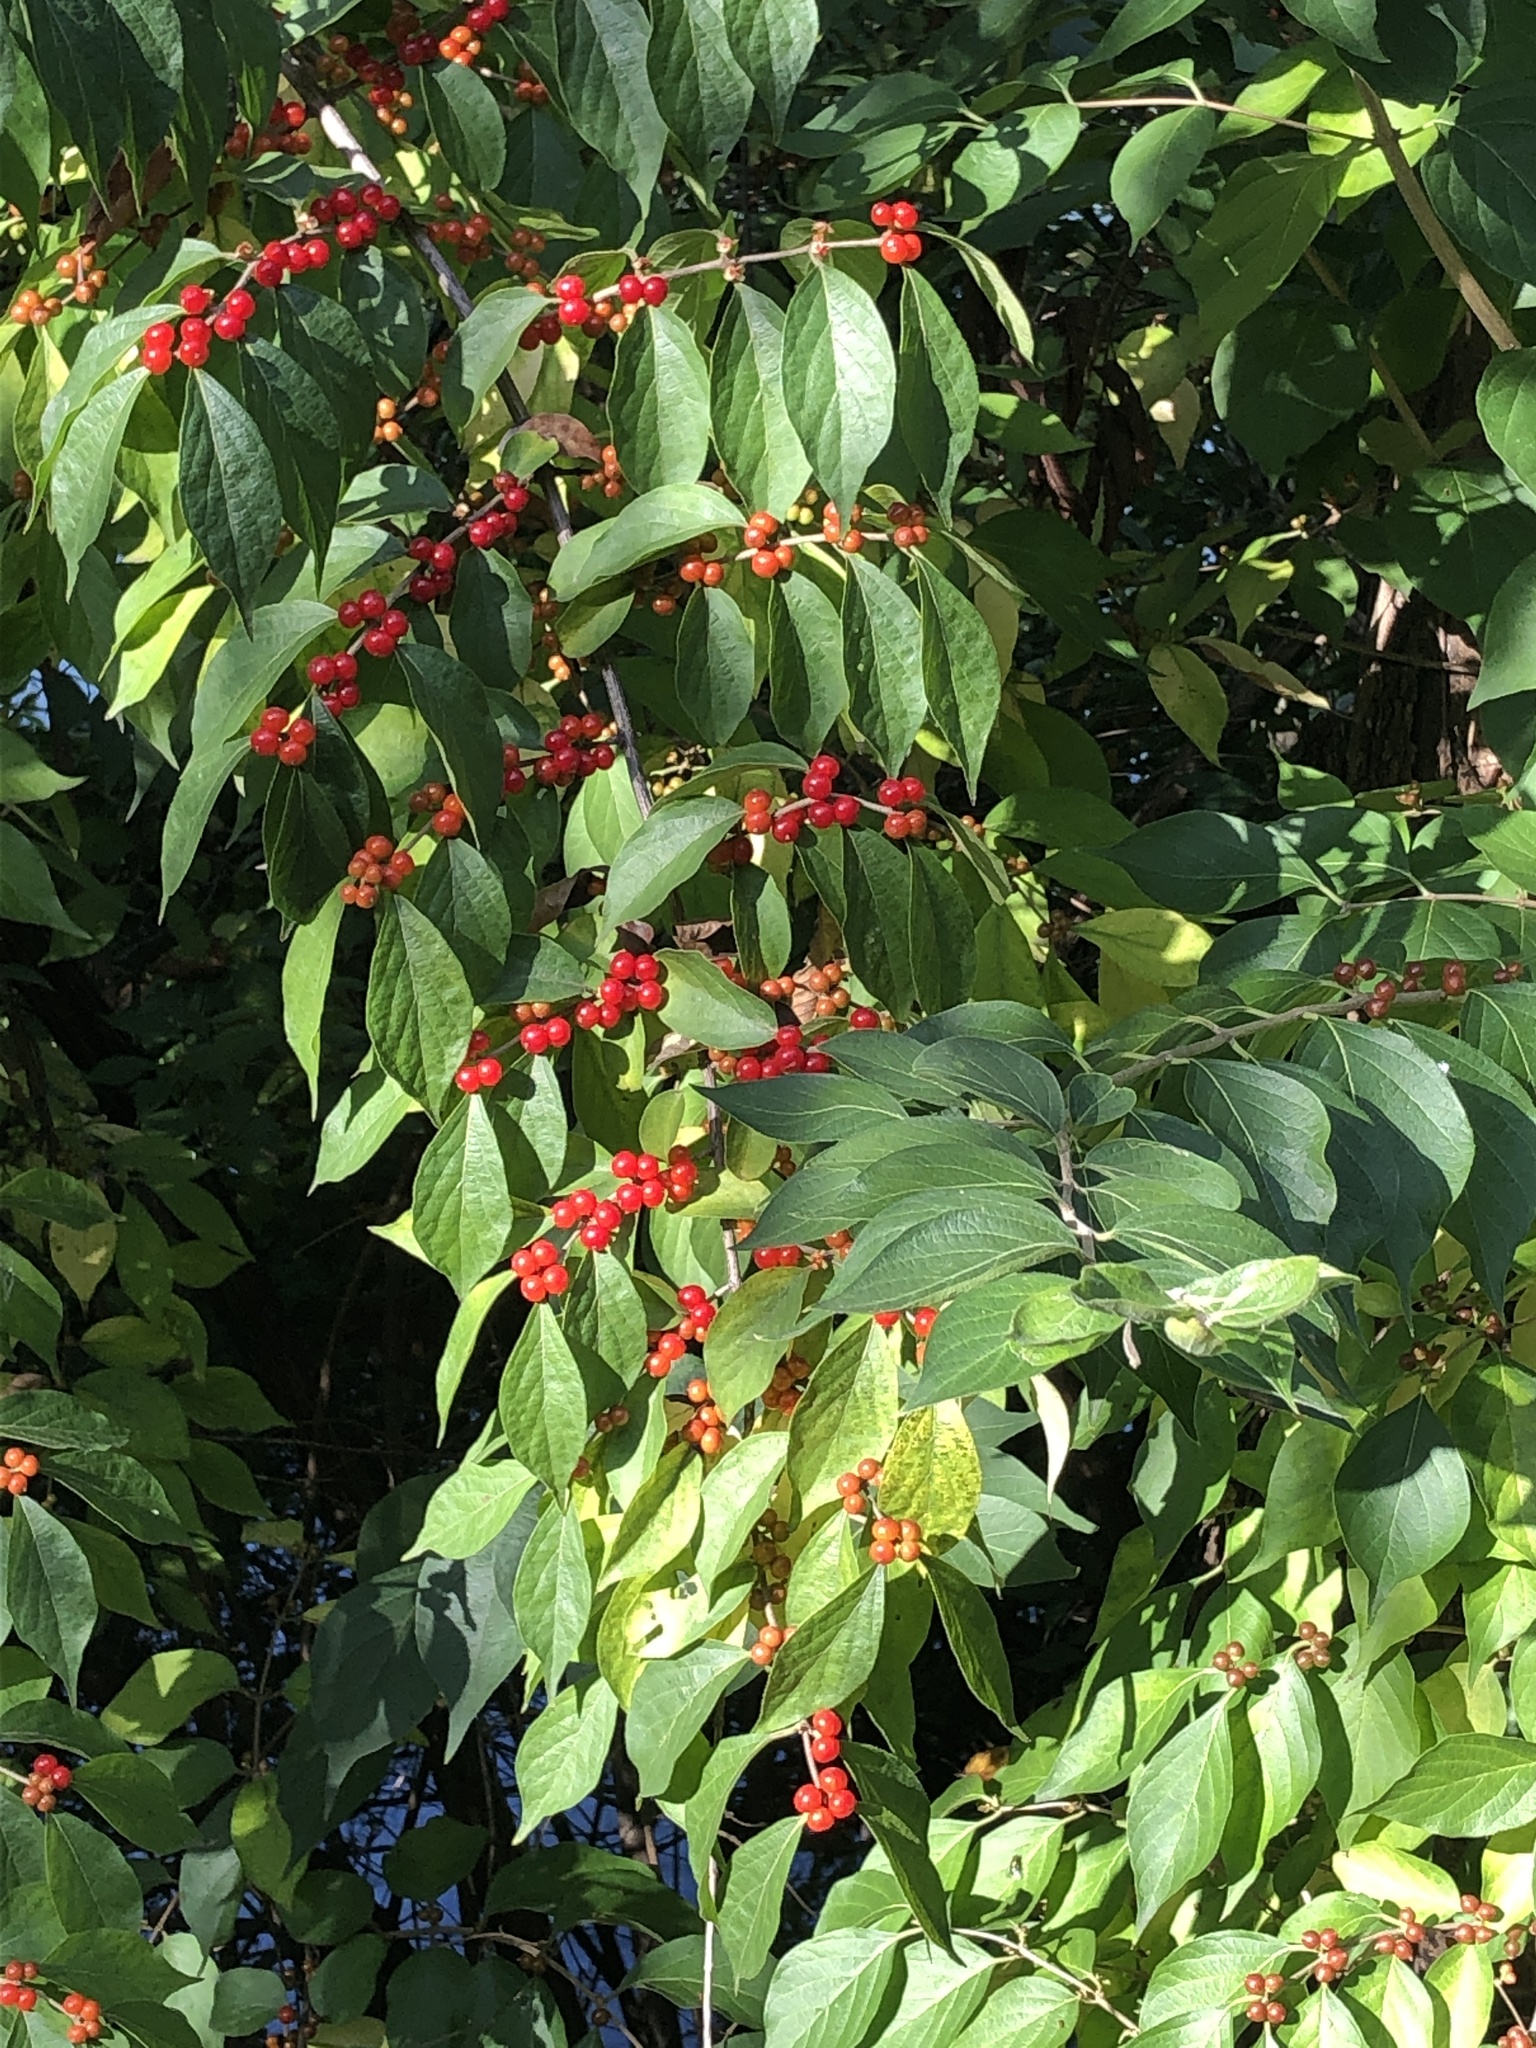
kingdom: Plantae
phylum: Tracheophyta
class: Magnoliopsida
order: Dipsacales
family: Caprifoliaceae
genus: Lonicera
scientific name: Lonicera maackii
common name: Amur honeysuckle
